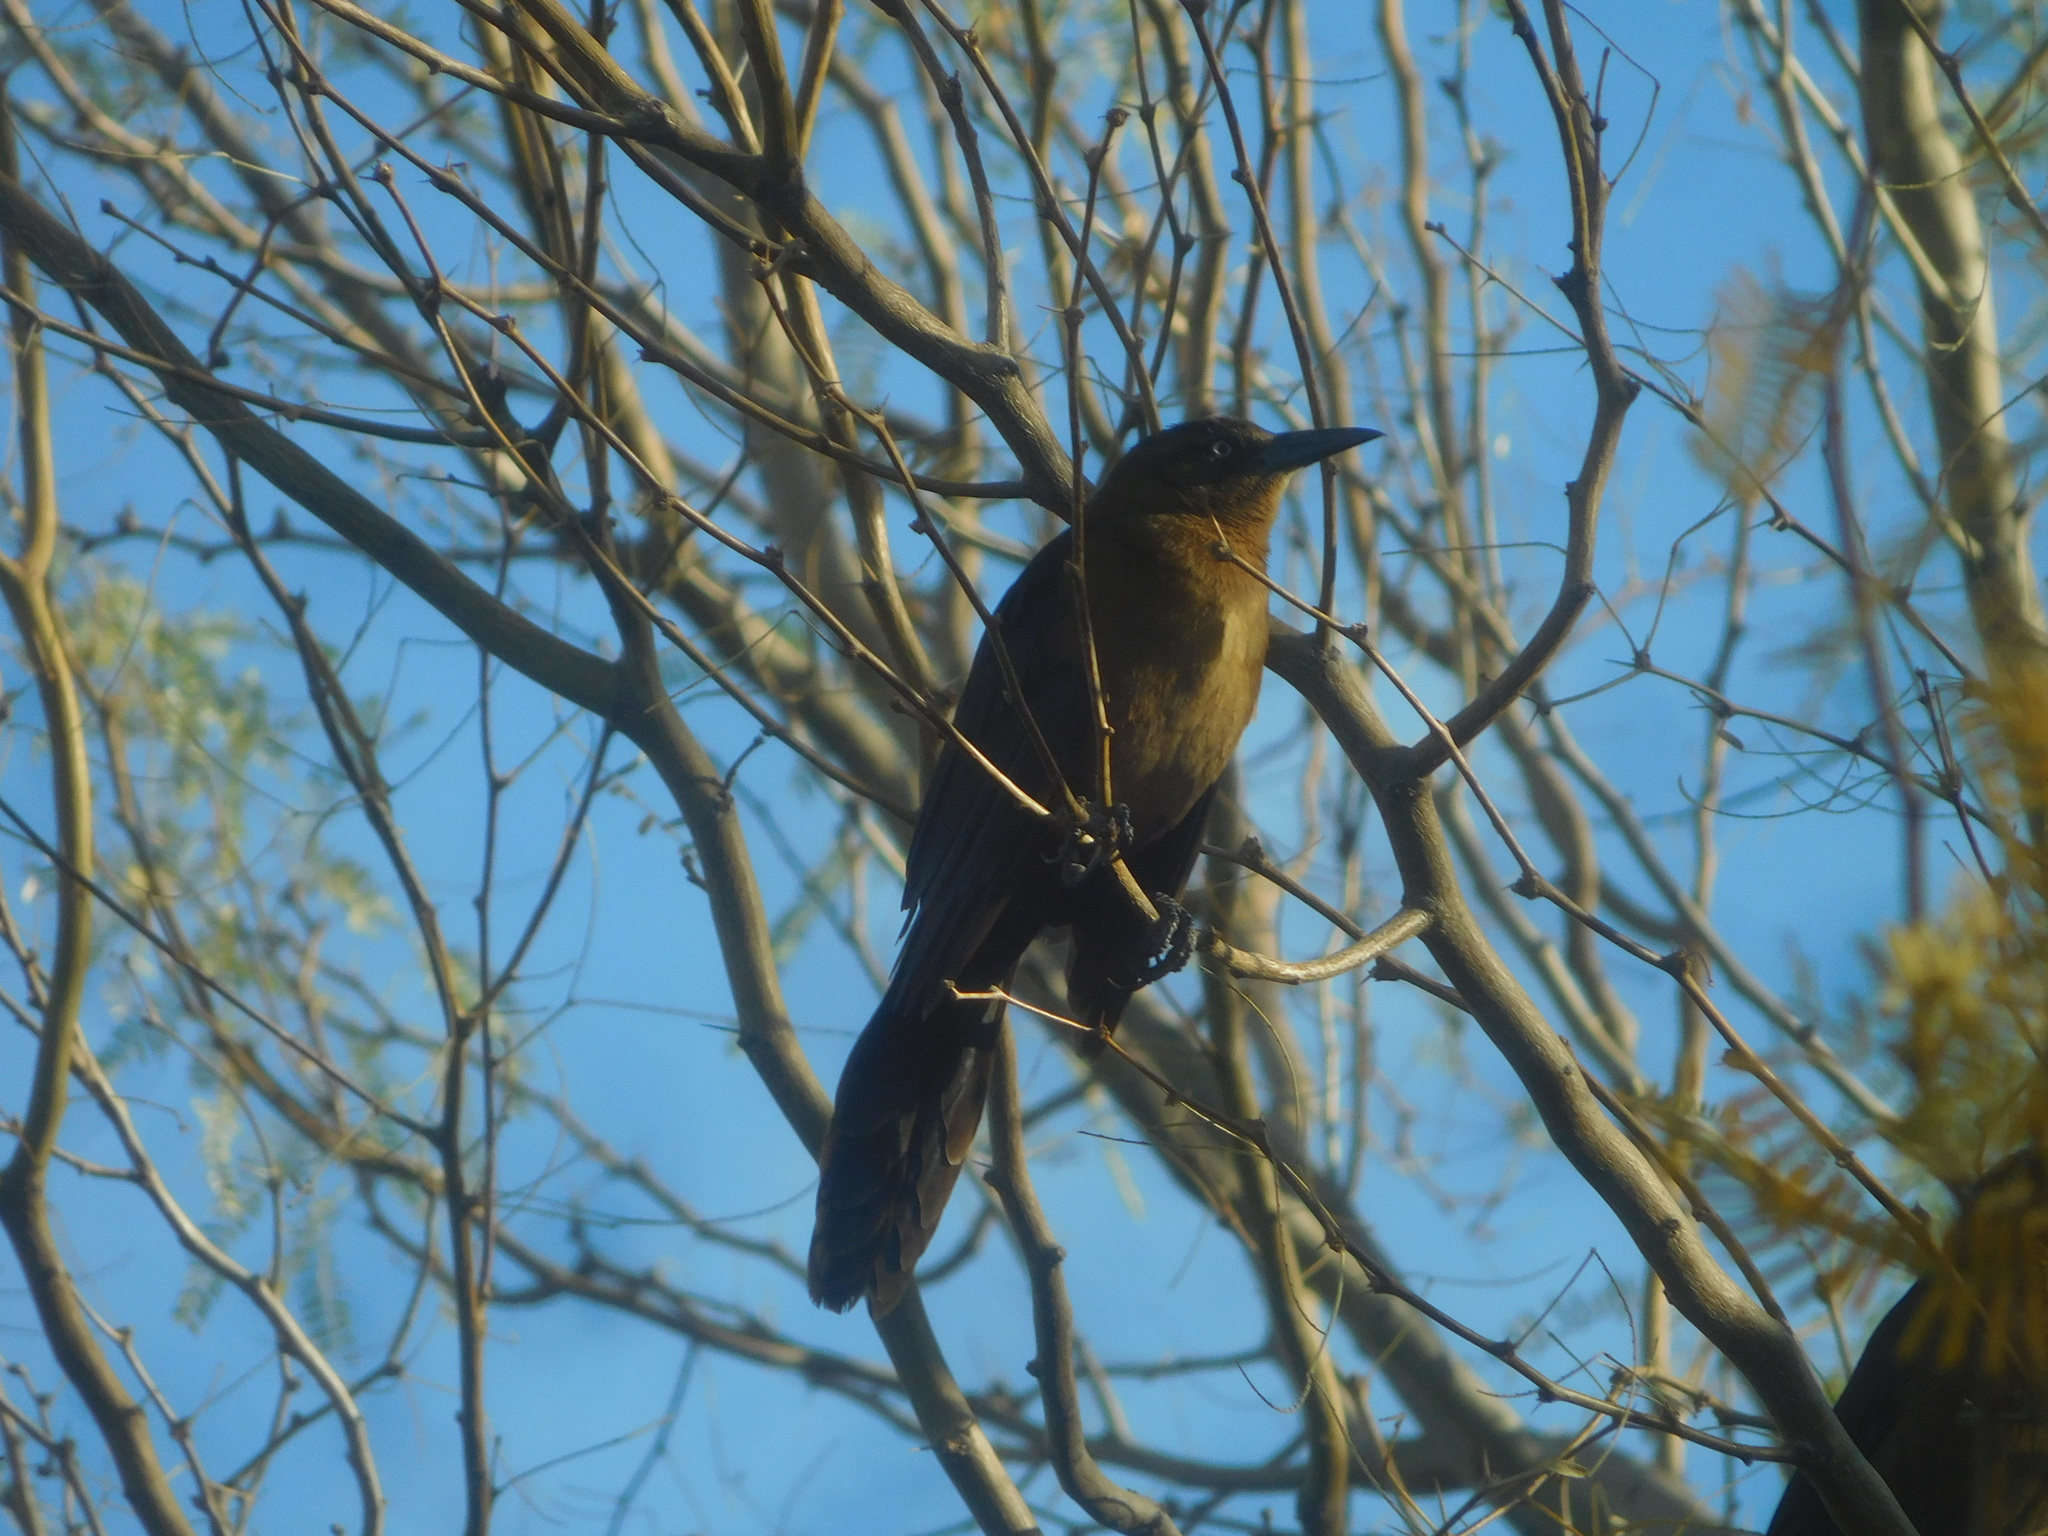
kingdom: Animalia
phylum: Chordata
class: Aves
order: Passeriformes
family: Icteridae
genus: Quiscalus
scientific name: Quiscalus mexicanus
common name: Great-tailed grackle
